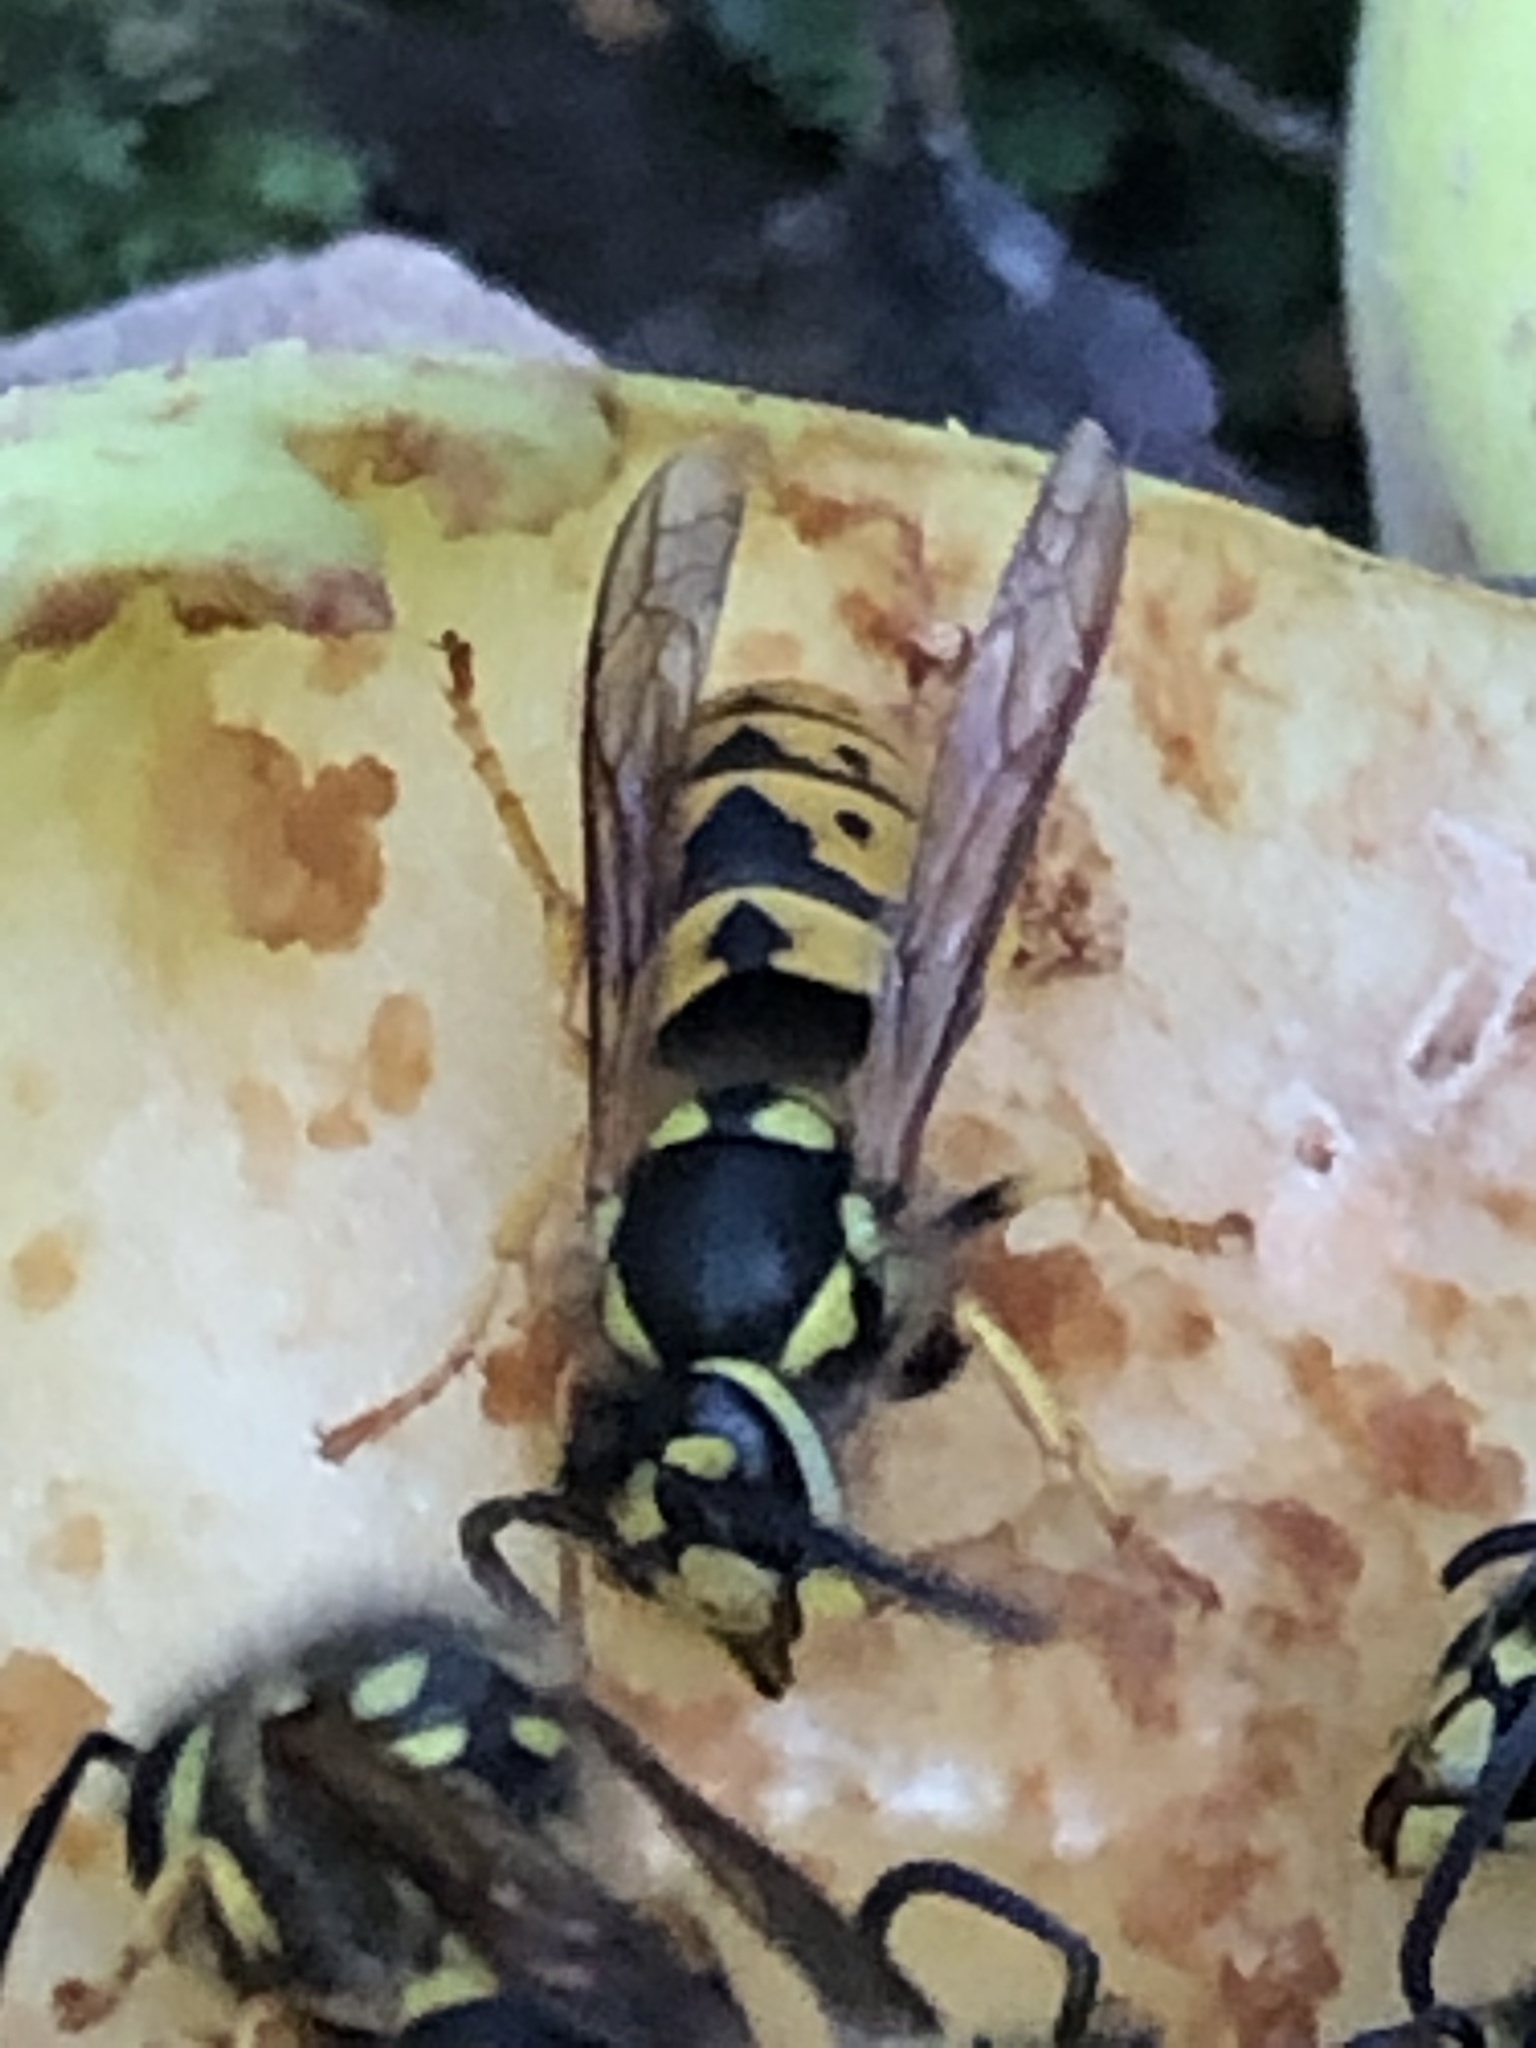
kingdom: Animalia
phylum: Arthropoda
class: Insecta
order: Hymenoptera
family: Vespidae
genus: Vespula
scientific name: Vespula germanica
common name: German wasp
